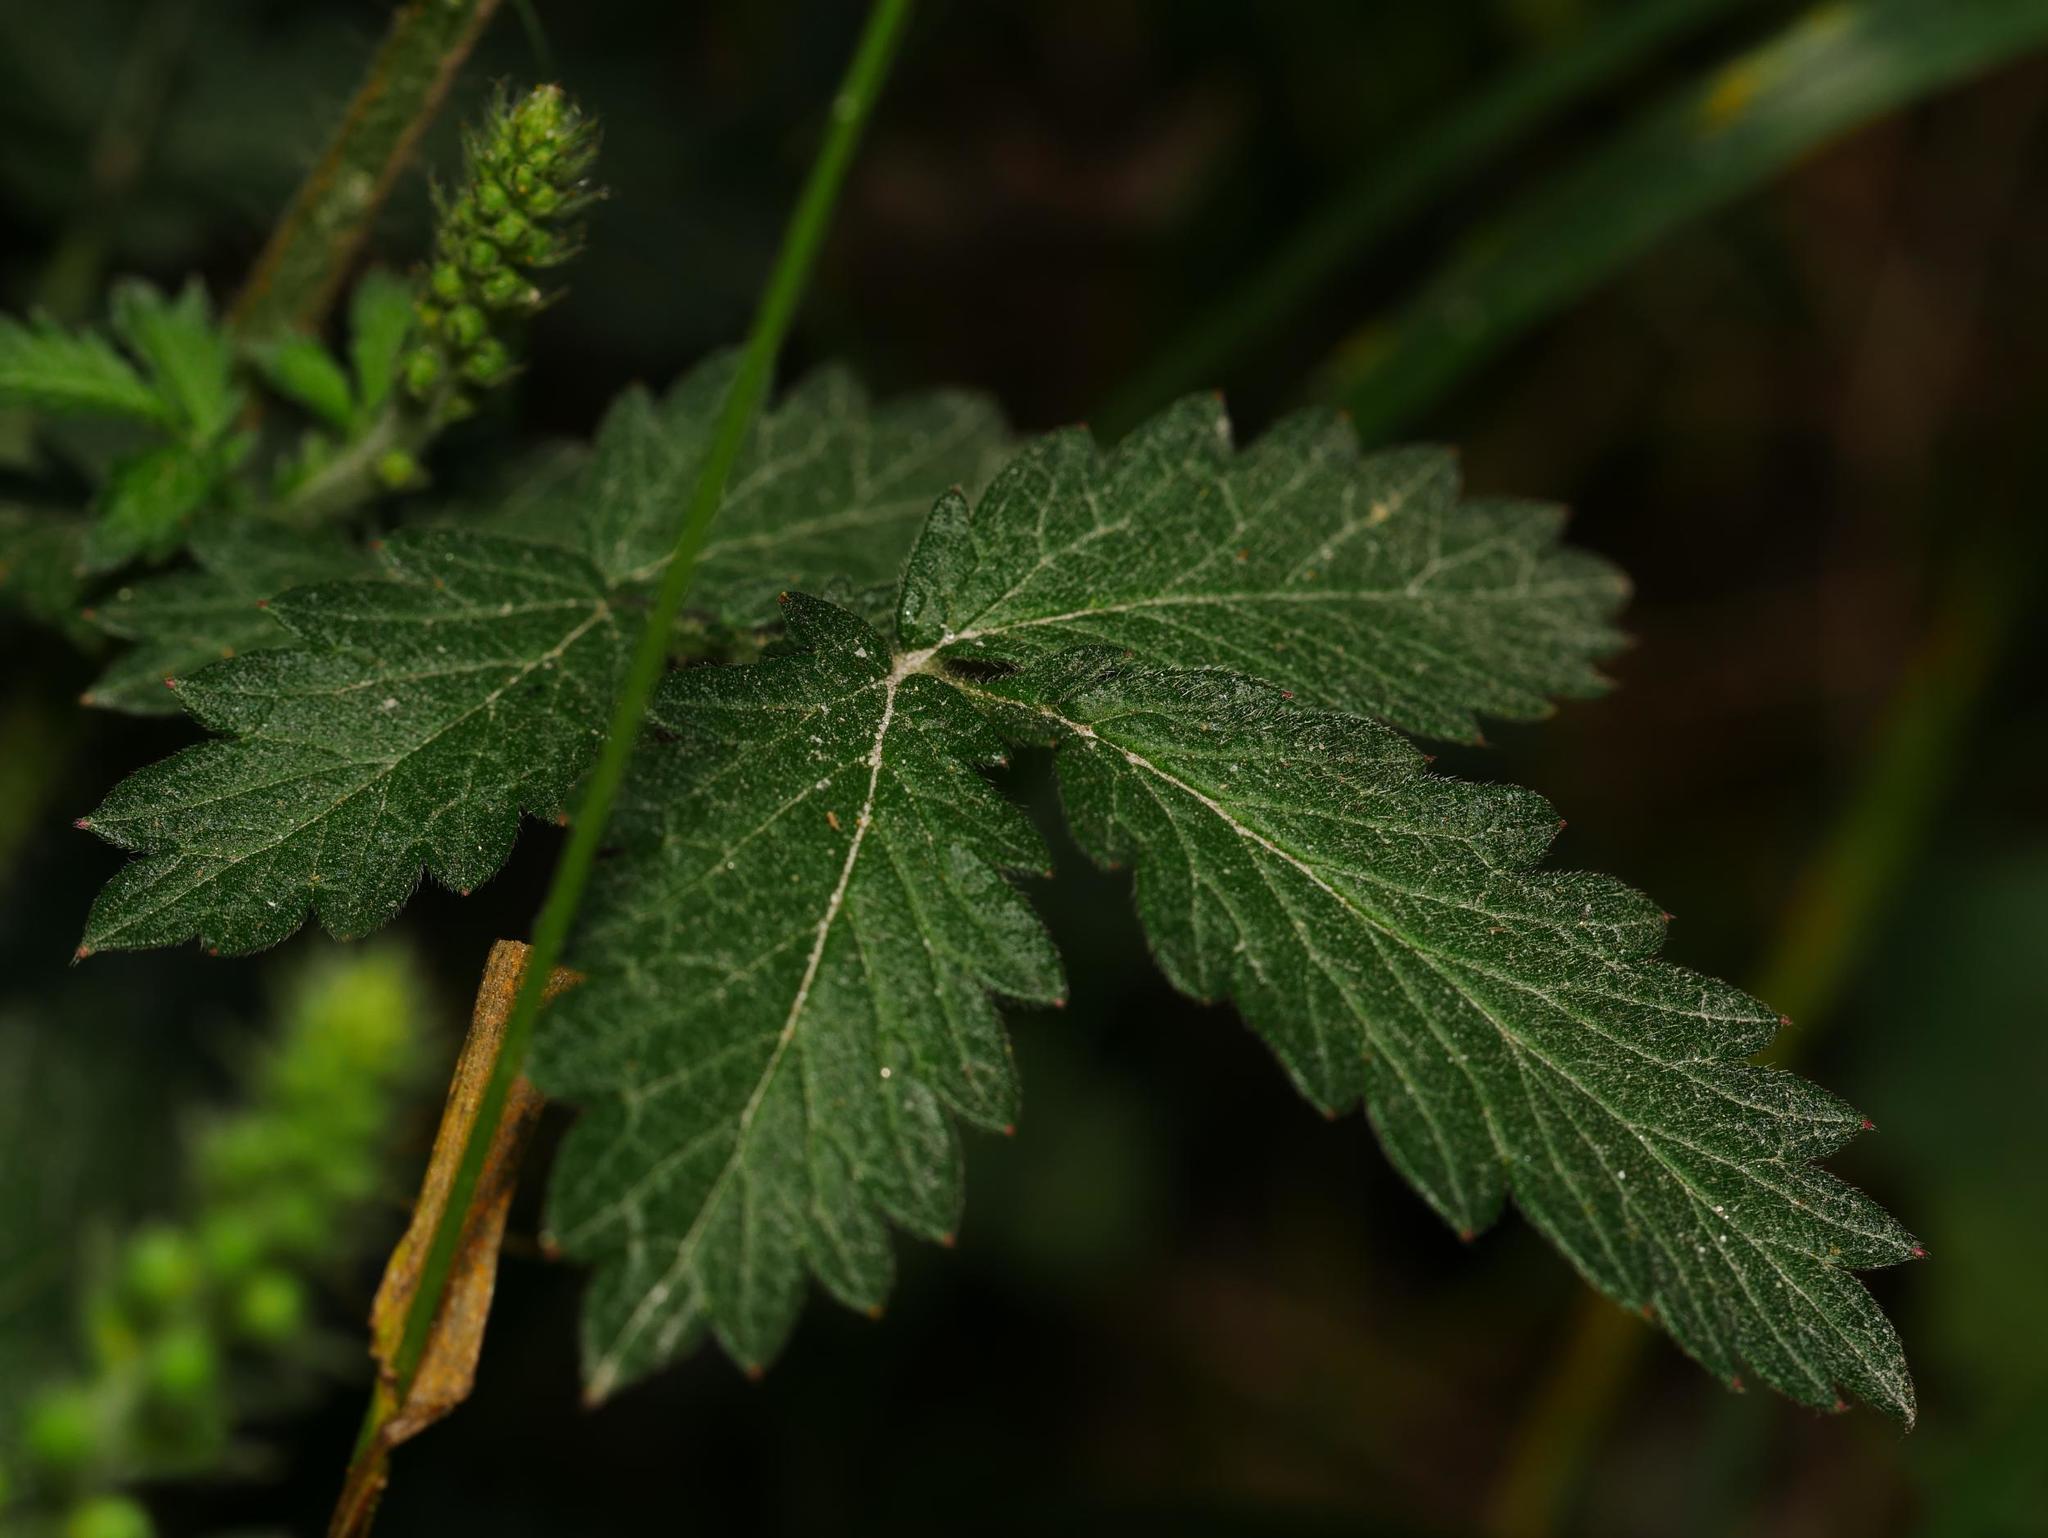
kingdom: Plantae
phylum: Tracheophyta
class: Magnoliopsida
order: Rosales
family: Rosaceae
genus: Agrimonia
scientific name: Agrimonia eupatoria
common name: Agrimony
